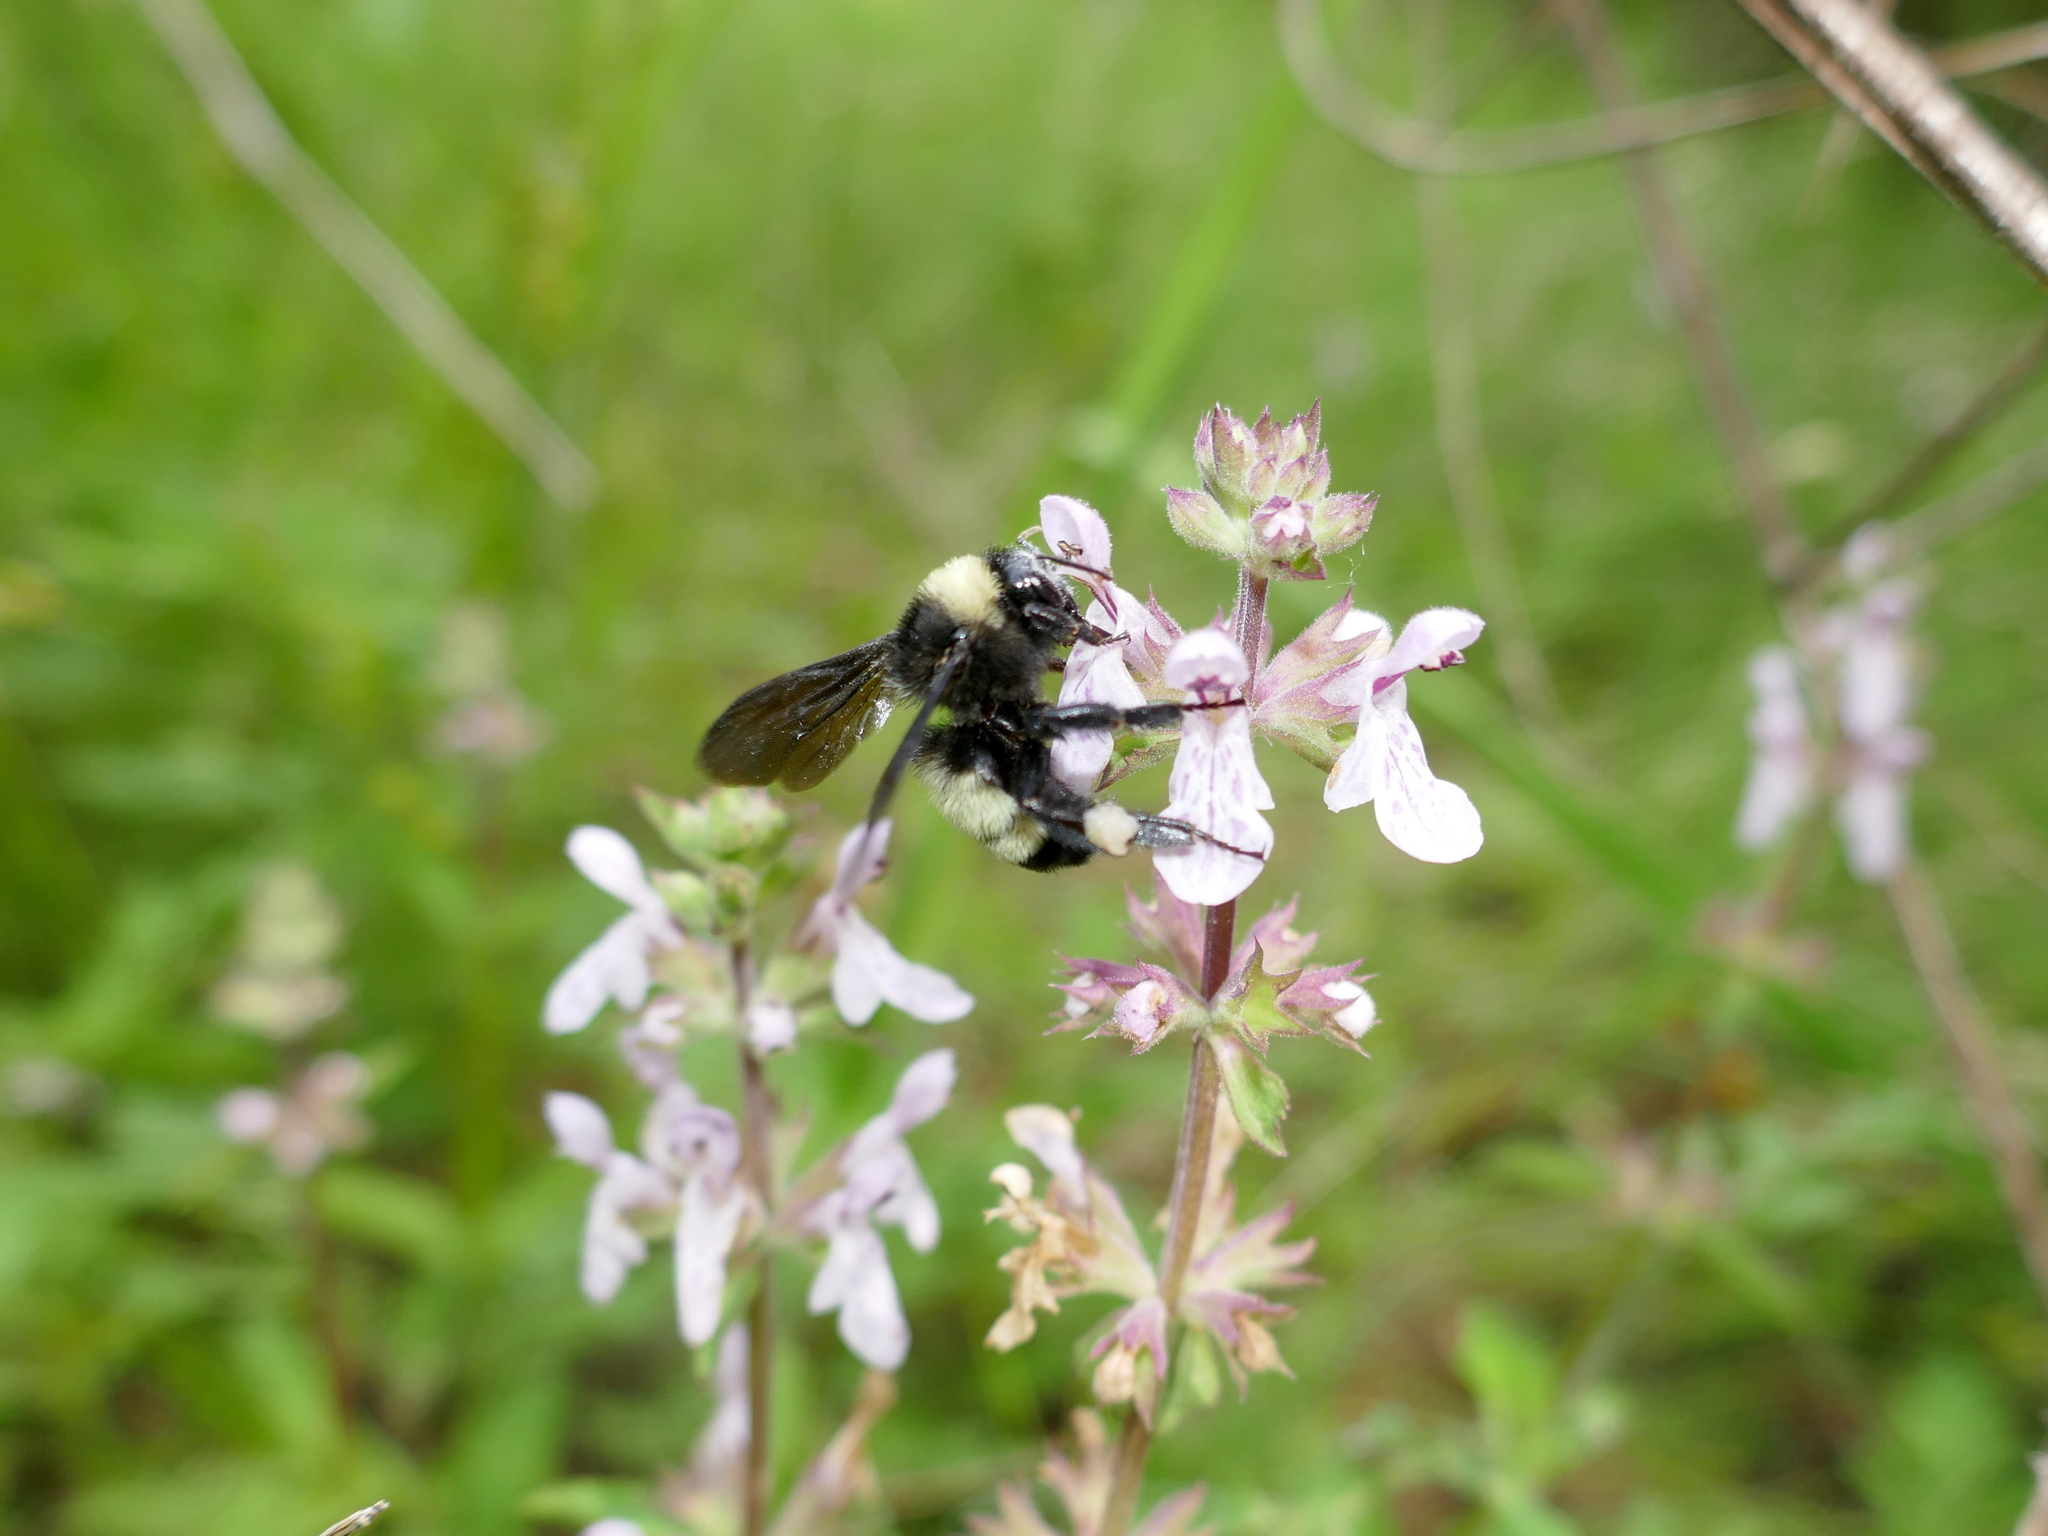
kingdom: Animalia
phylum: Arthropoda
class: Insecta
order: Hymenoptera
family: Apidae
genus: Bombus
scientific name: Bombus pensylvanicus
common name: Bumble bee
